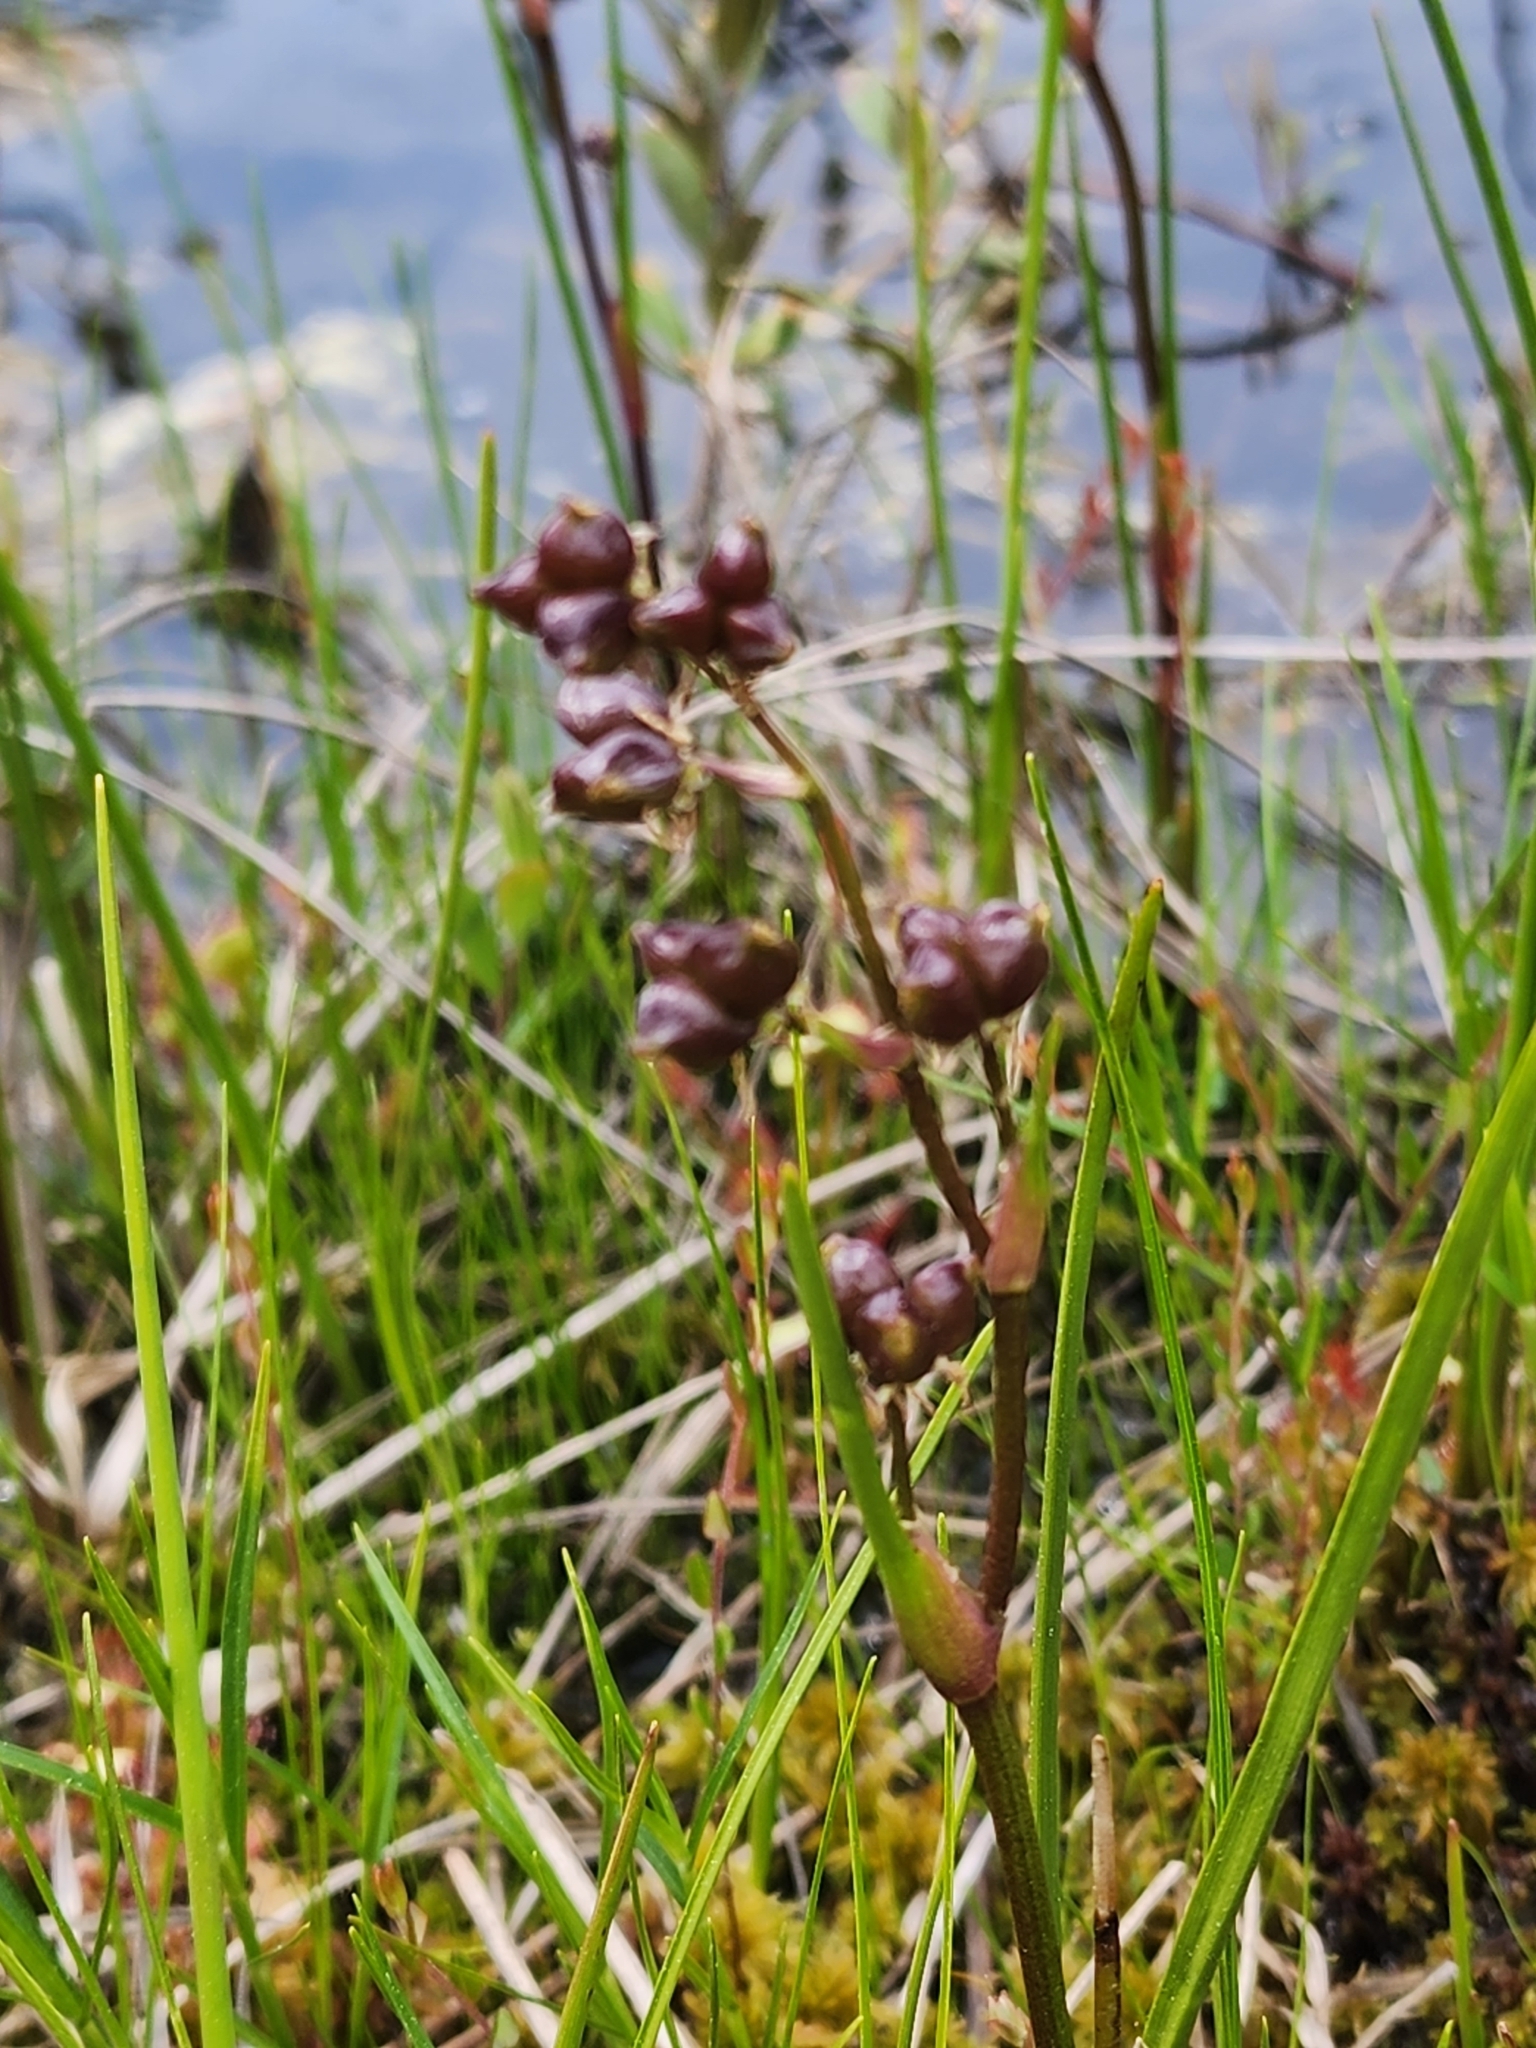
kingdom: Plantae
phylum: Tracheophyta
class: Liliopsida
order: Alismatales
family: Scheuchzeriaceae
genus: Scheuchzeria
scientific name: Scheuchzeria palustris
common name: Rannoch-rush
